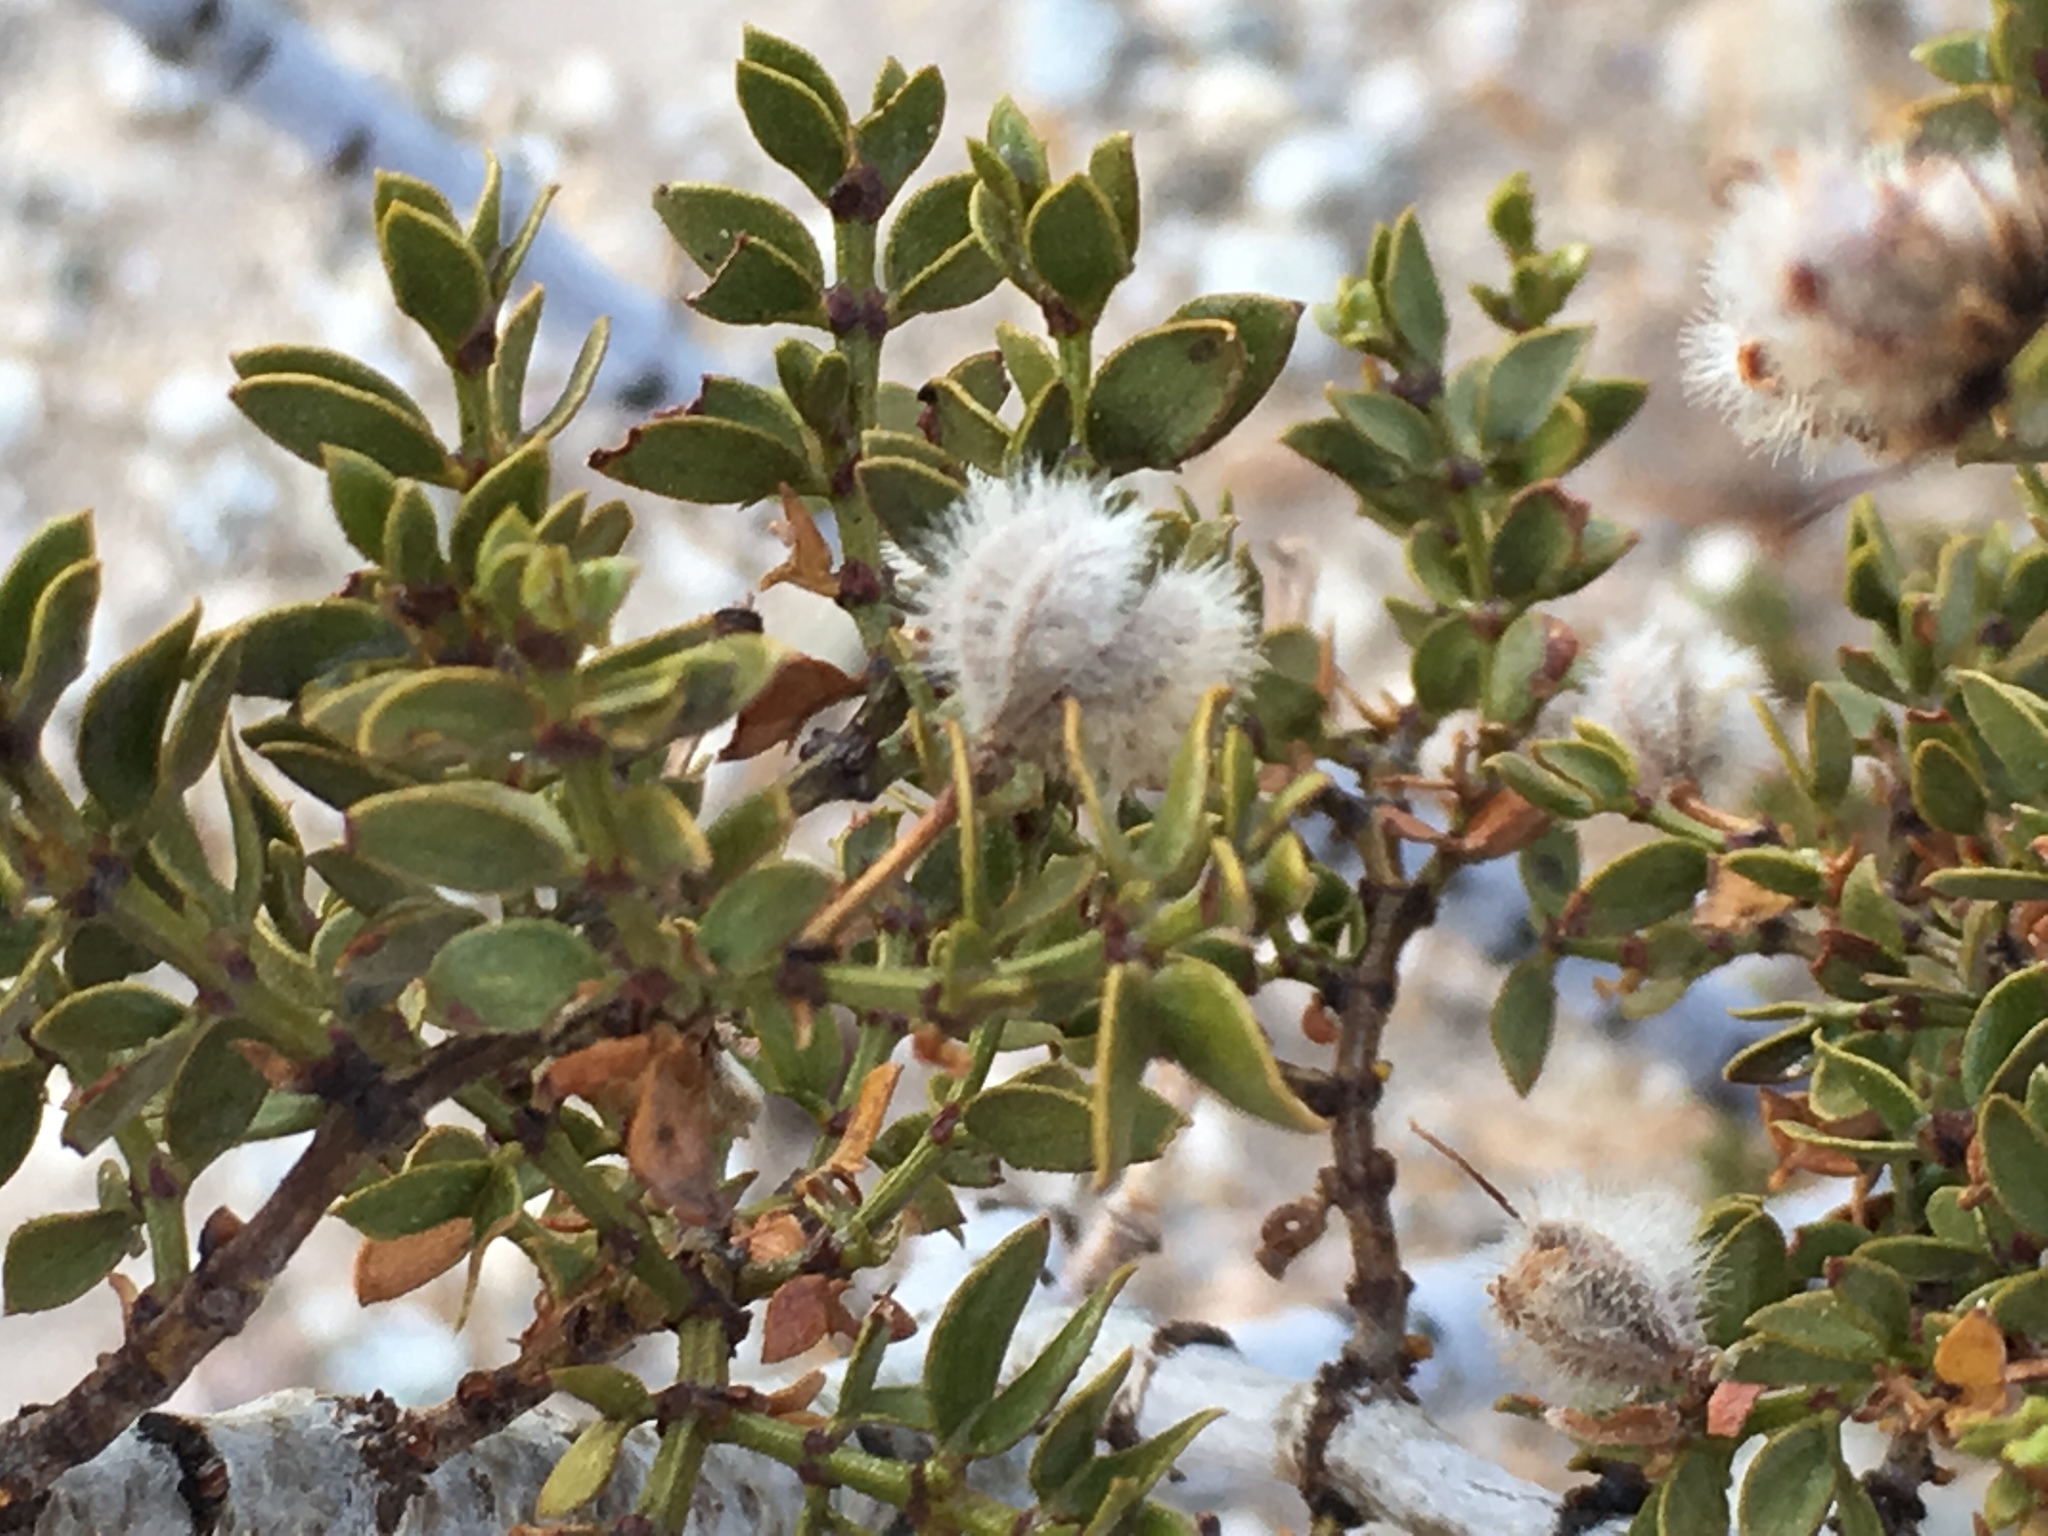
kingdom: Plantae
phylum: Tracheophyta
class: Magnoliopsida
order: Zygophyllales
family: Zygophyllaceae
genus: Larrea
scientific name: Larrea tridentata
